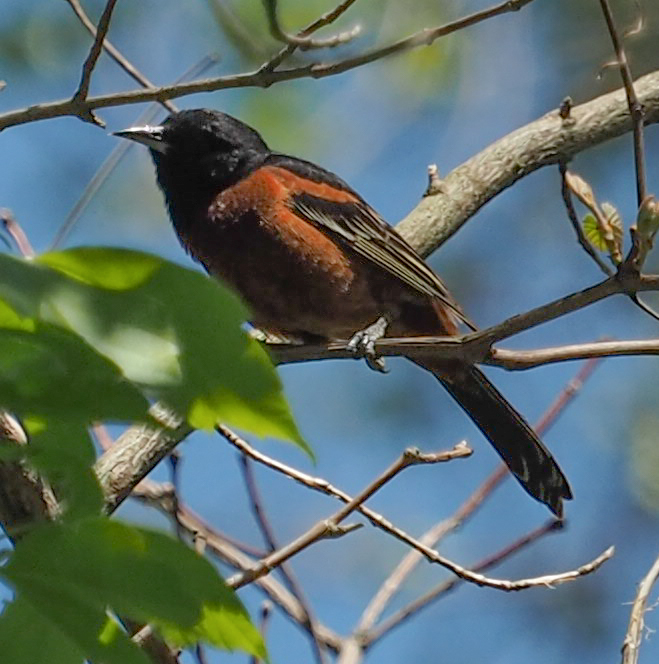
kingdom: Animalia
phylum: Chordata
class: Aves
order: Passeriformes
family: Icteridae
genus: Icterus
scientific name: Icterus spurius
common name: Orchard oriole
